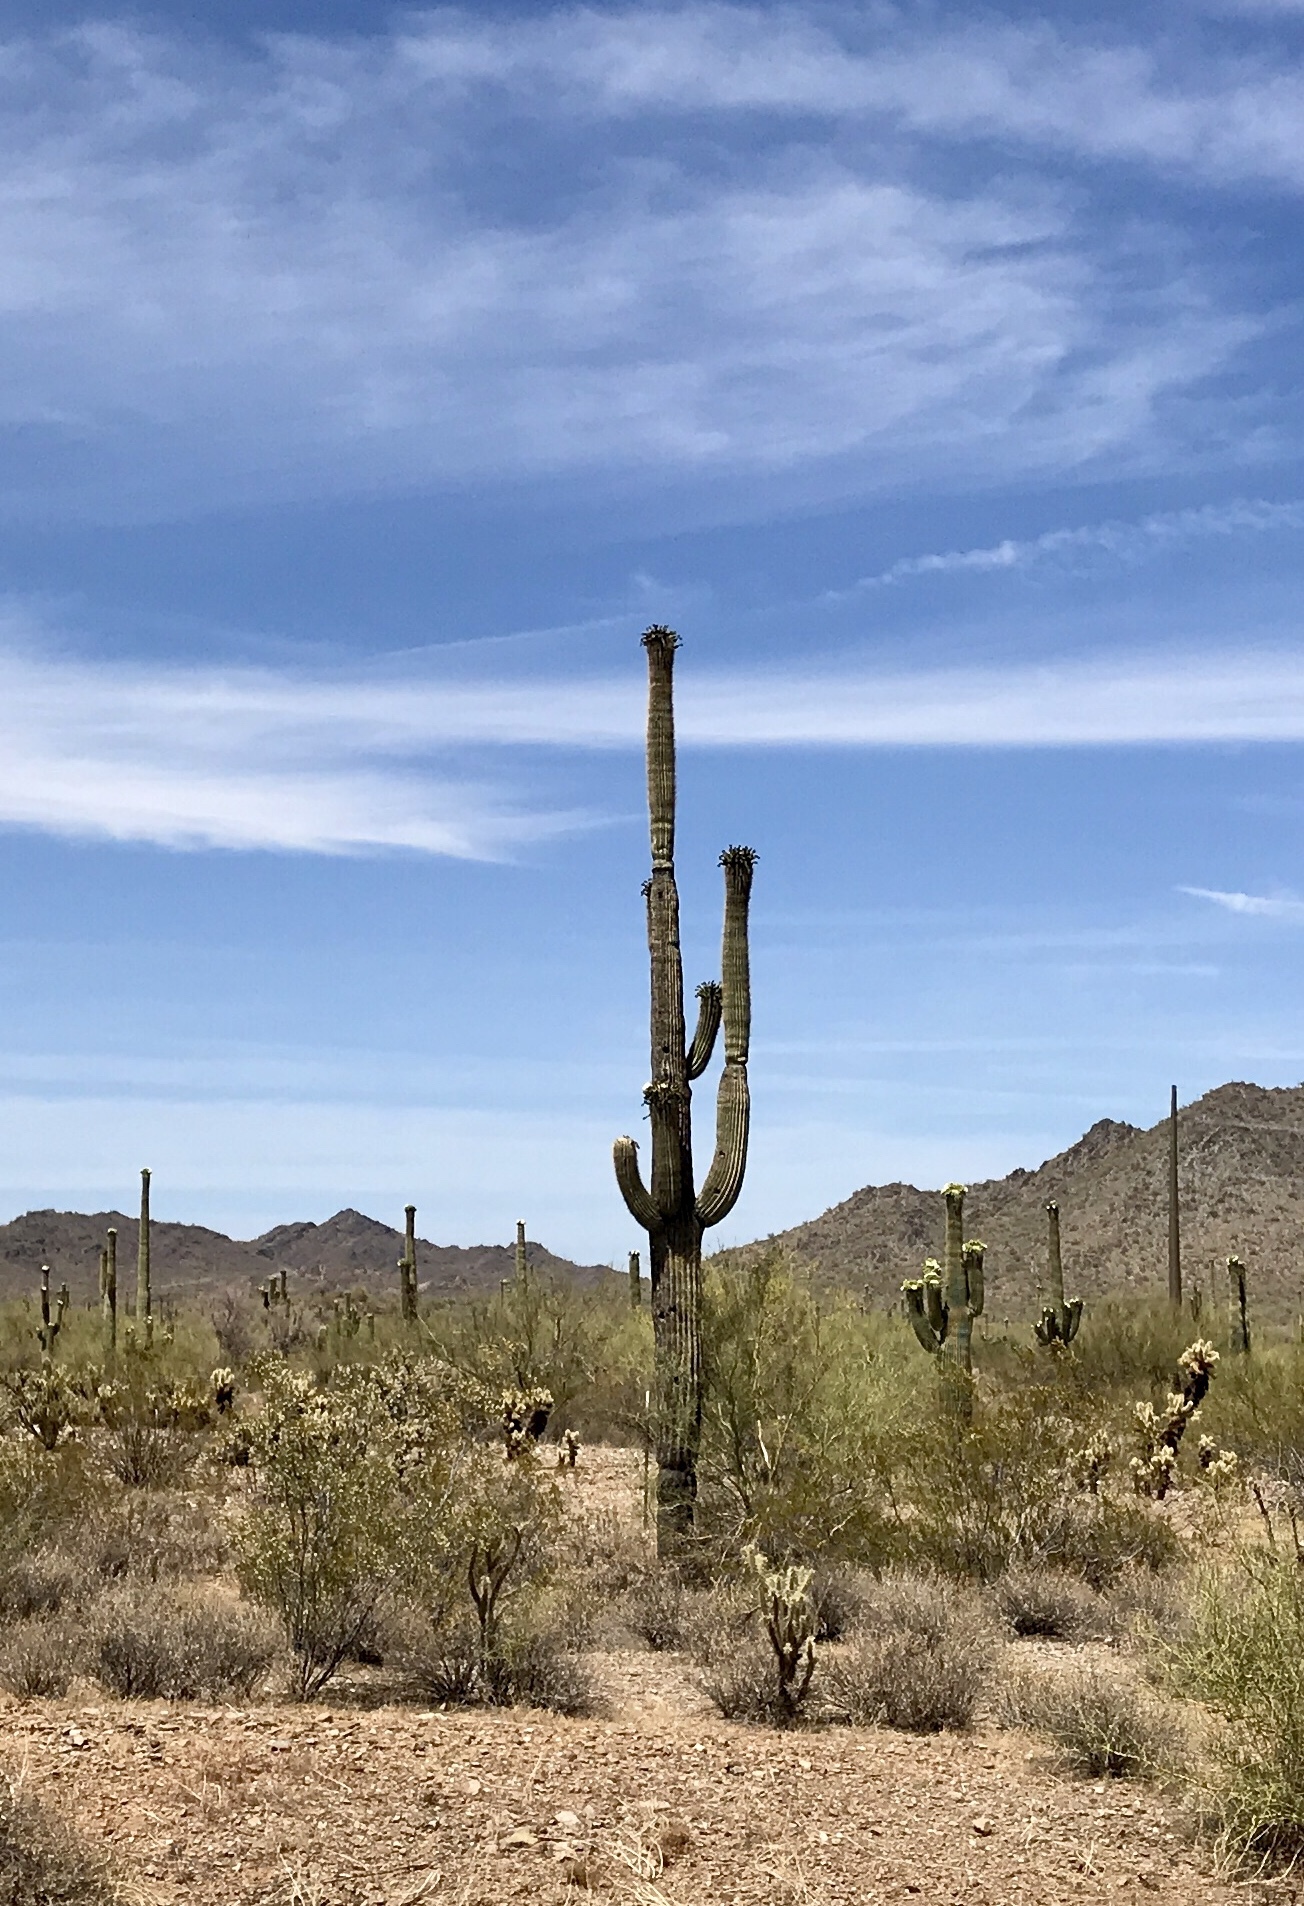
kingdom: Plantae
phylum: Tracheophyta
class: Magnoliopsida
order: Caryophyllales
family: Cactaceae
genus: Carnegiea
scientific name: Carnegiea gigantea
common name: Saguaro
